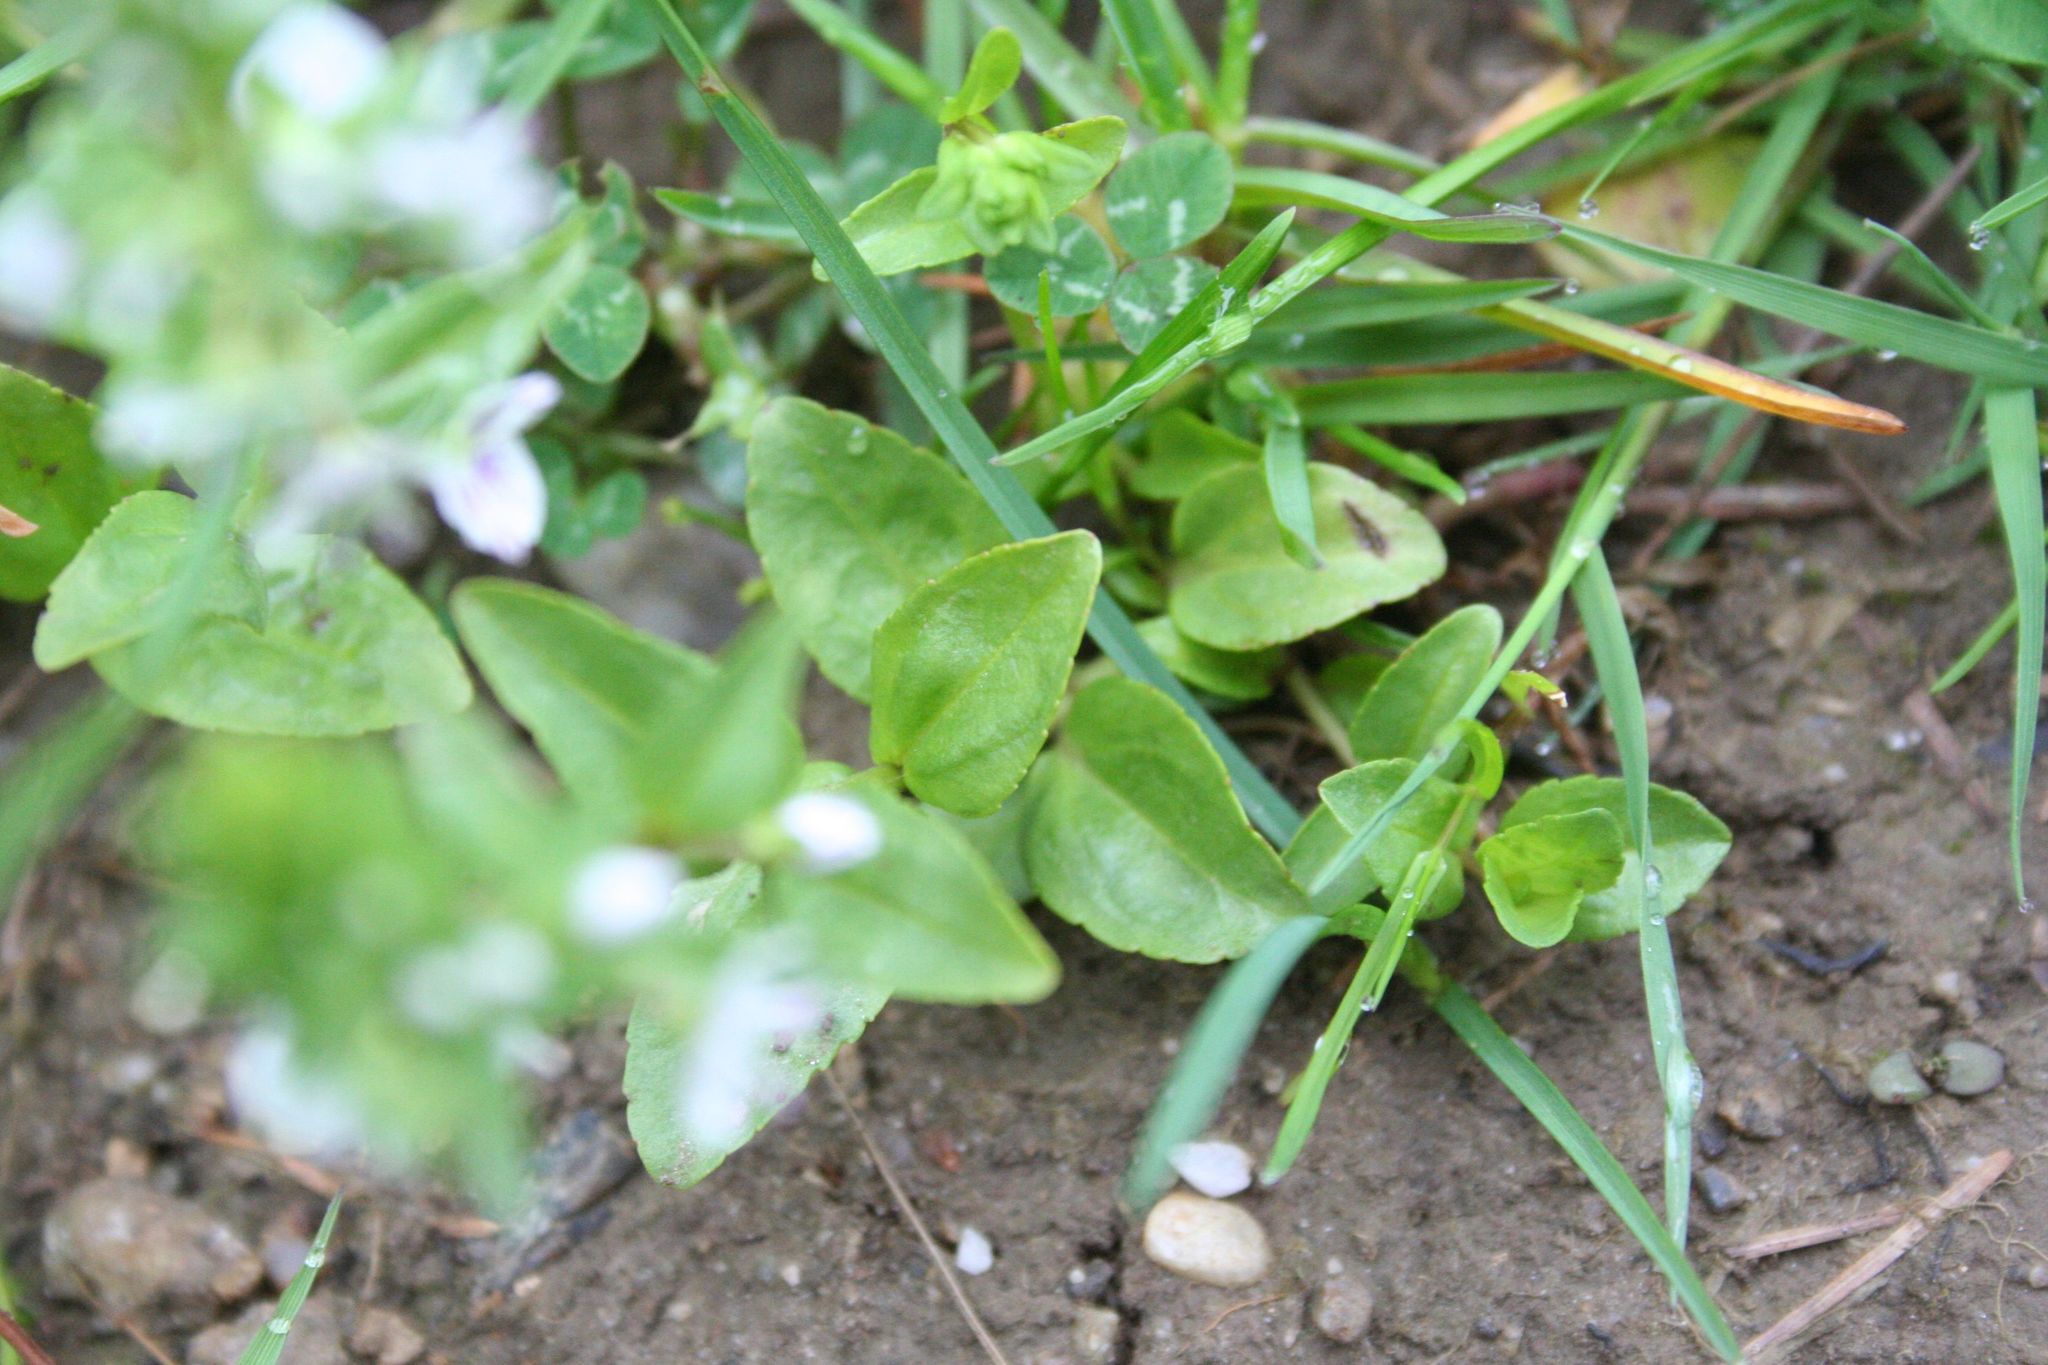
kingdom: Plantae
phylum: Tracheophyta
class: Magnoliopsida
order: Lamiales
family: Plantaginaceae
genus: Veronica
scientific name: Veronica serpyllifolia
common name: Thyme-leaved speedwell
